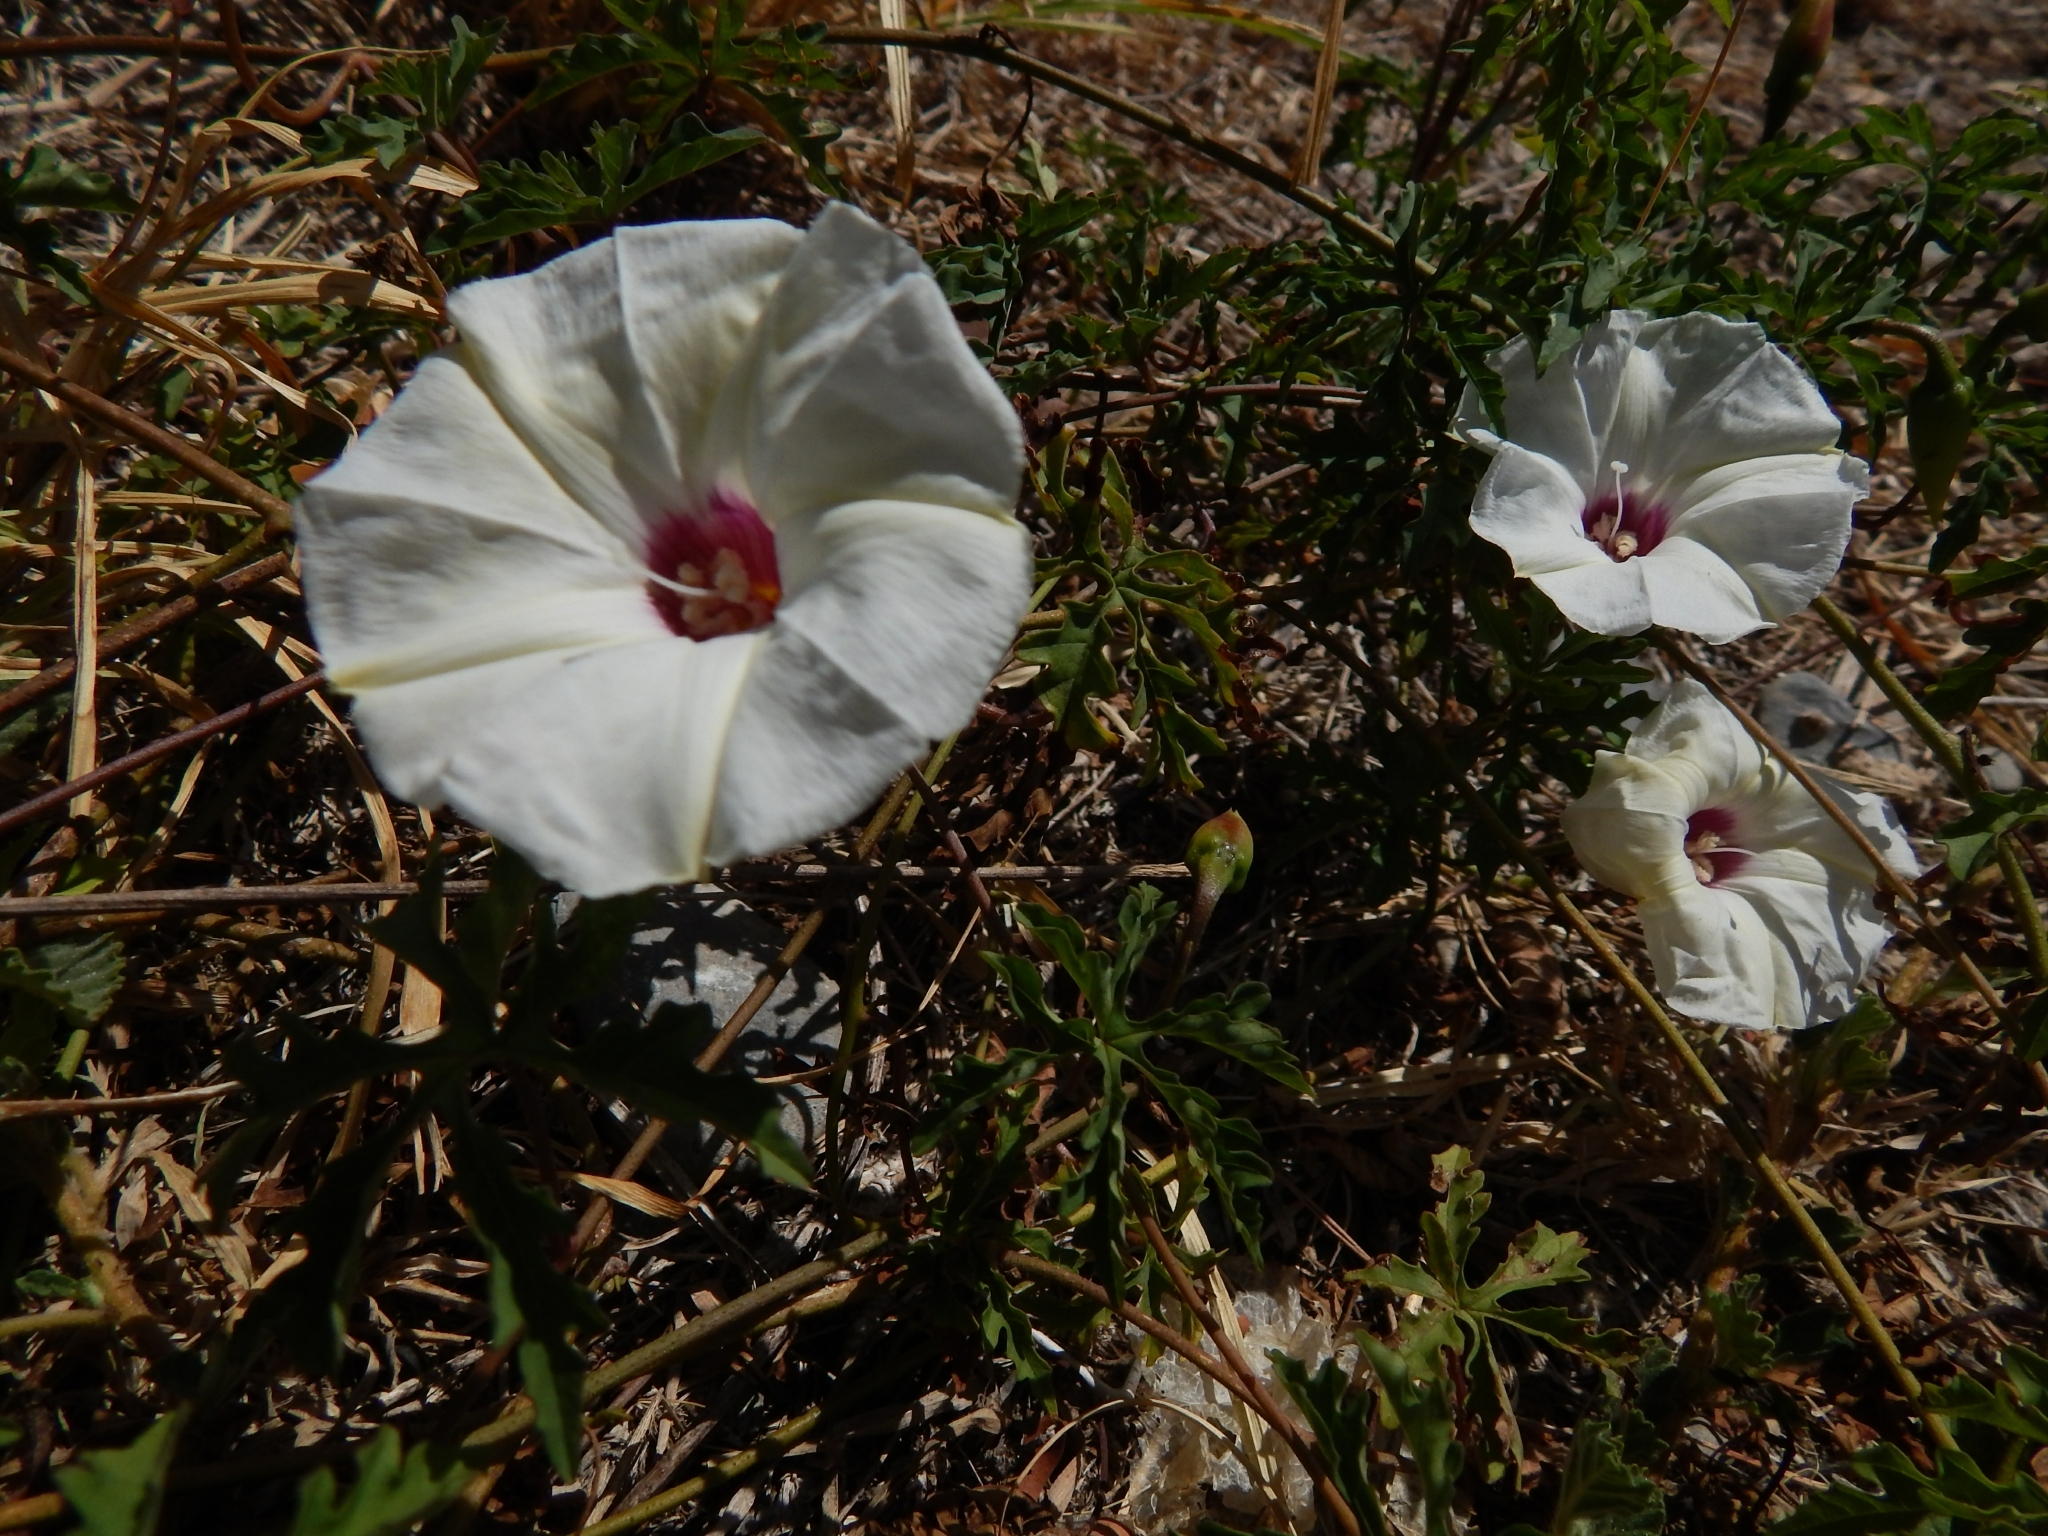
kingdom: Plantae
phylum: Tracheophyta
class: Magnoliopsida
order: Solanales
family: Convolvulaceae
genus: Distimake
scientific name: Distimake dissectus
